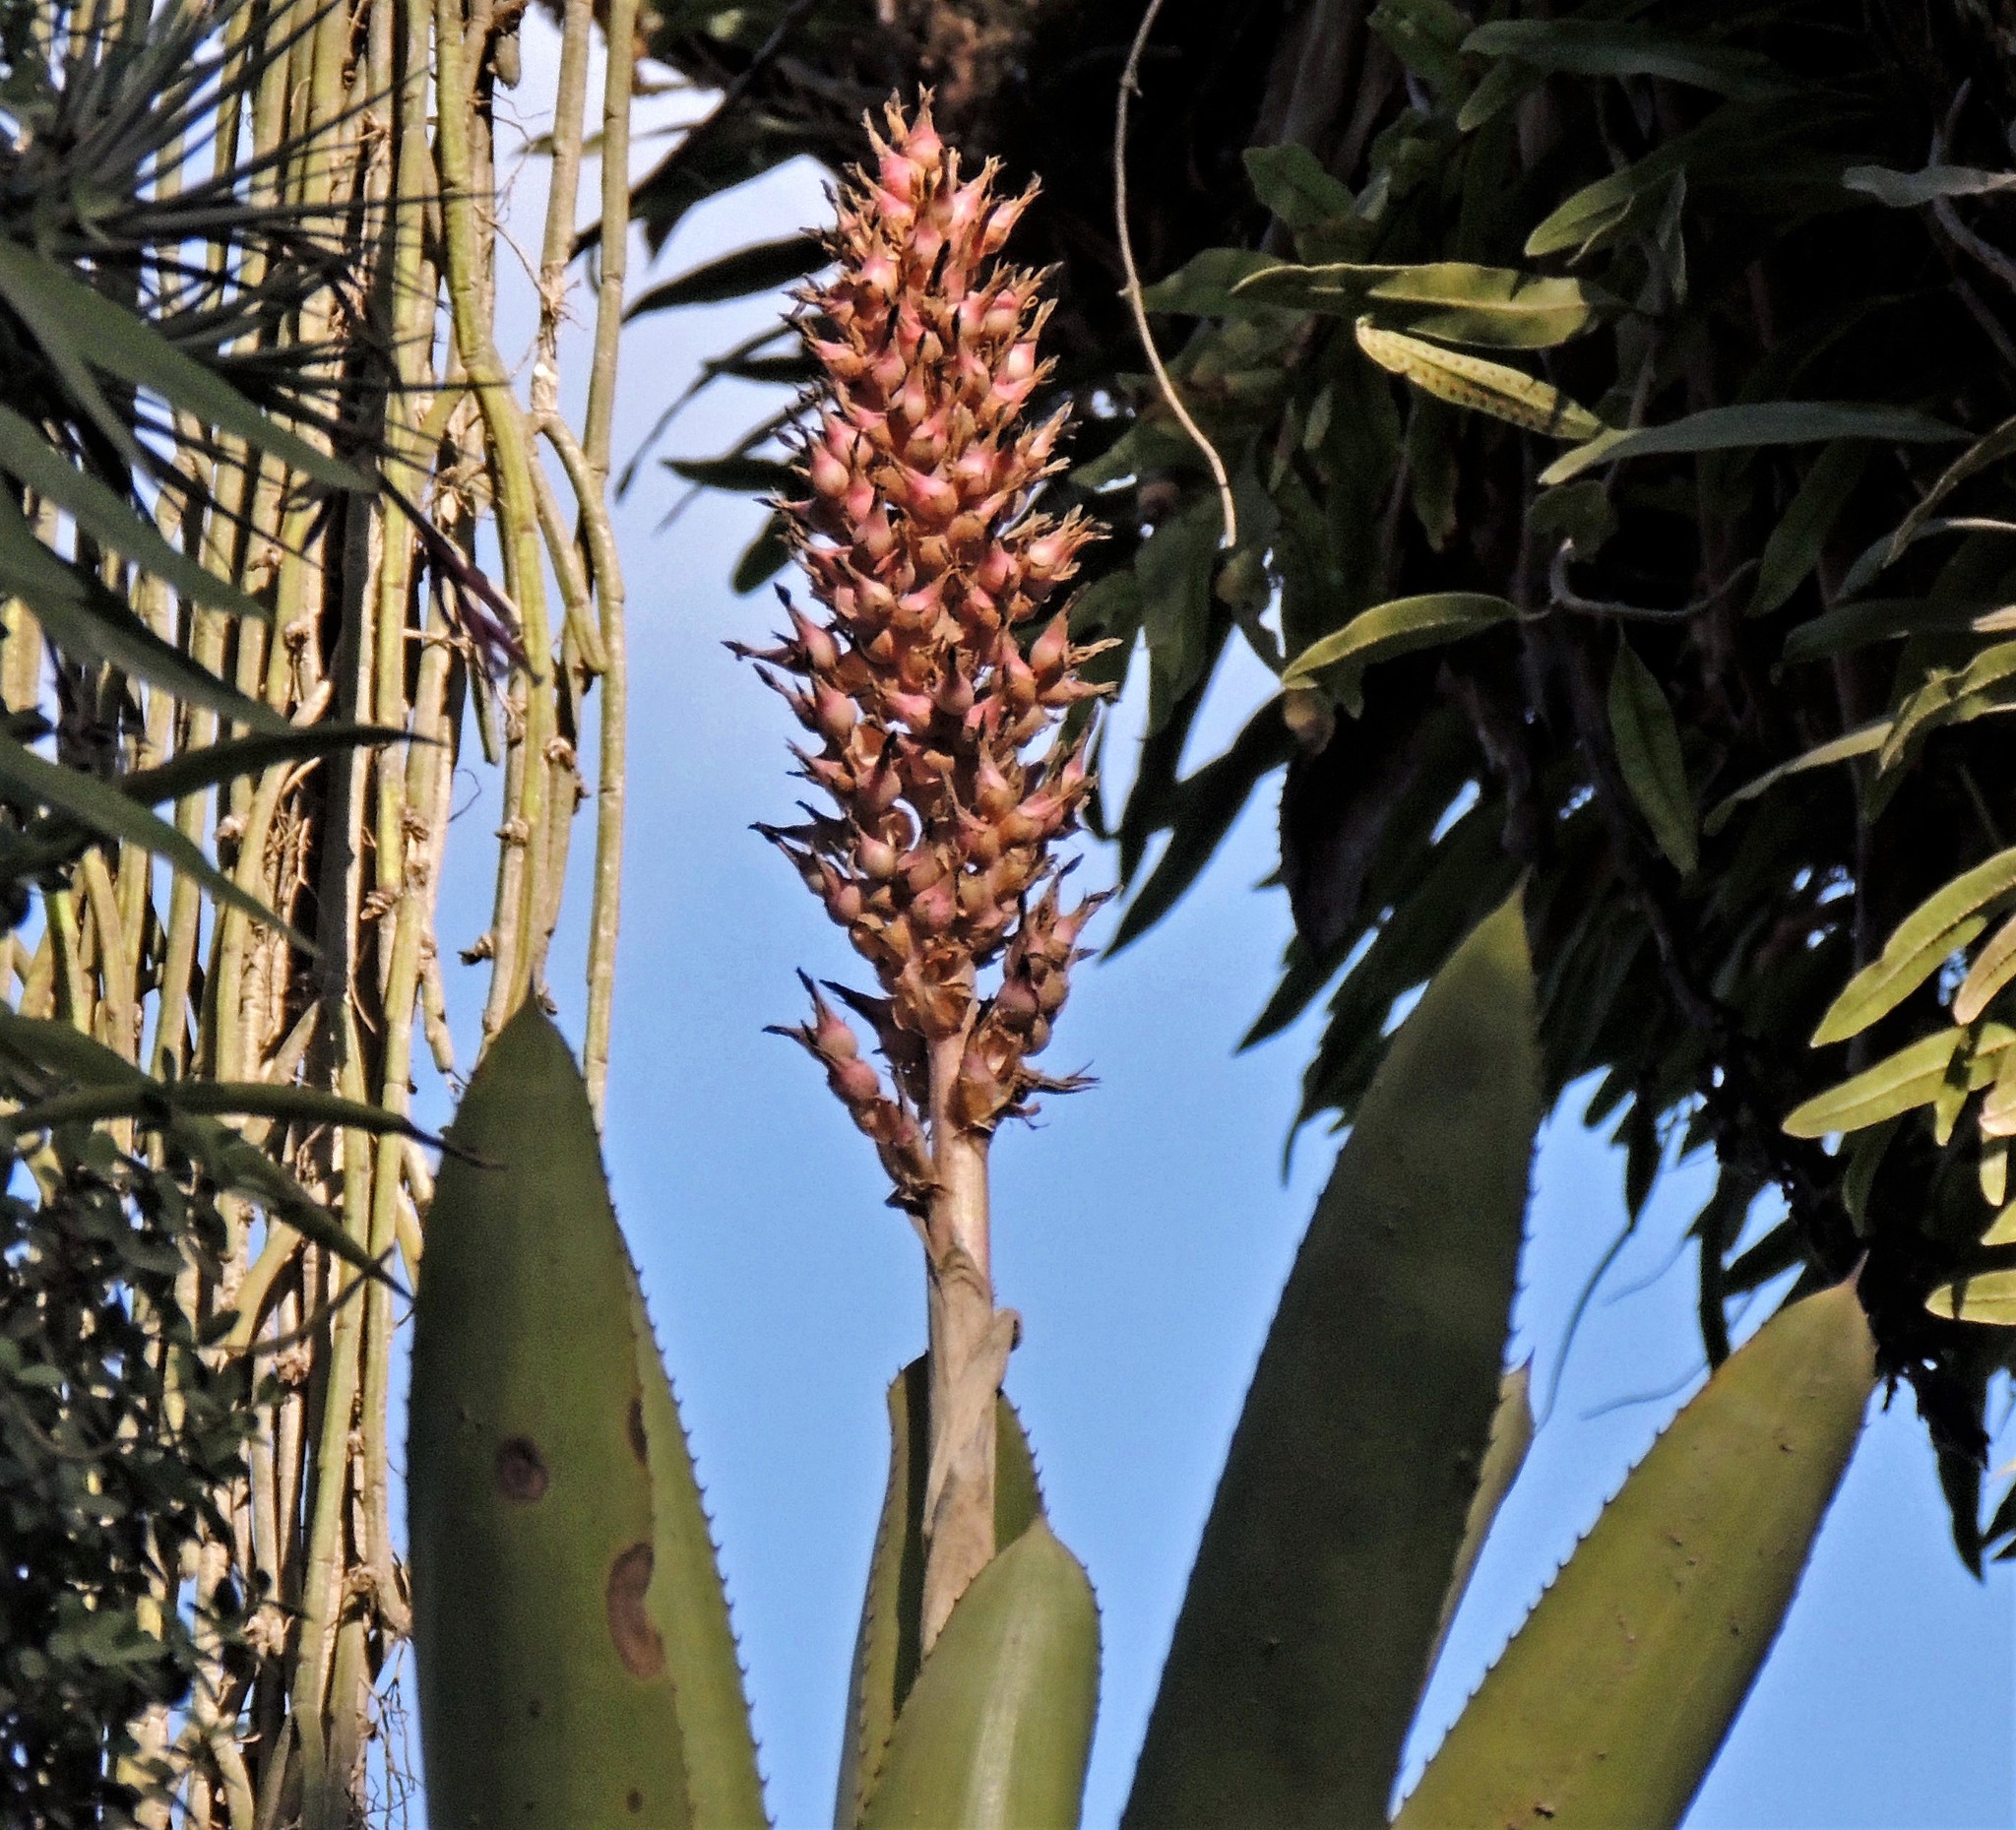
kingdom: Plantae
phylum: Tracheophyta
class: Liliopsida
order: Poales
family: Bromeliaceae
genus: Aechmea
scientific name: Aechmea distichantha
